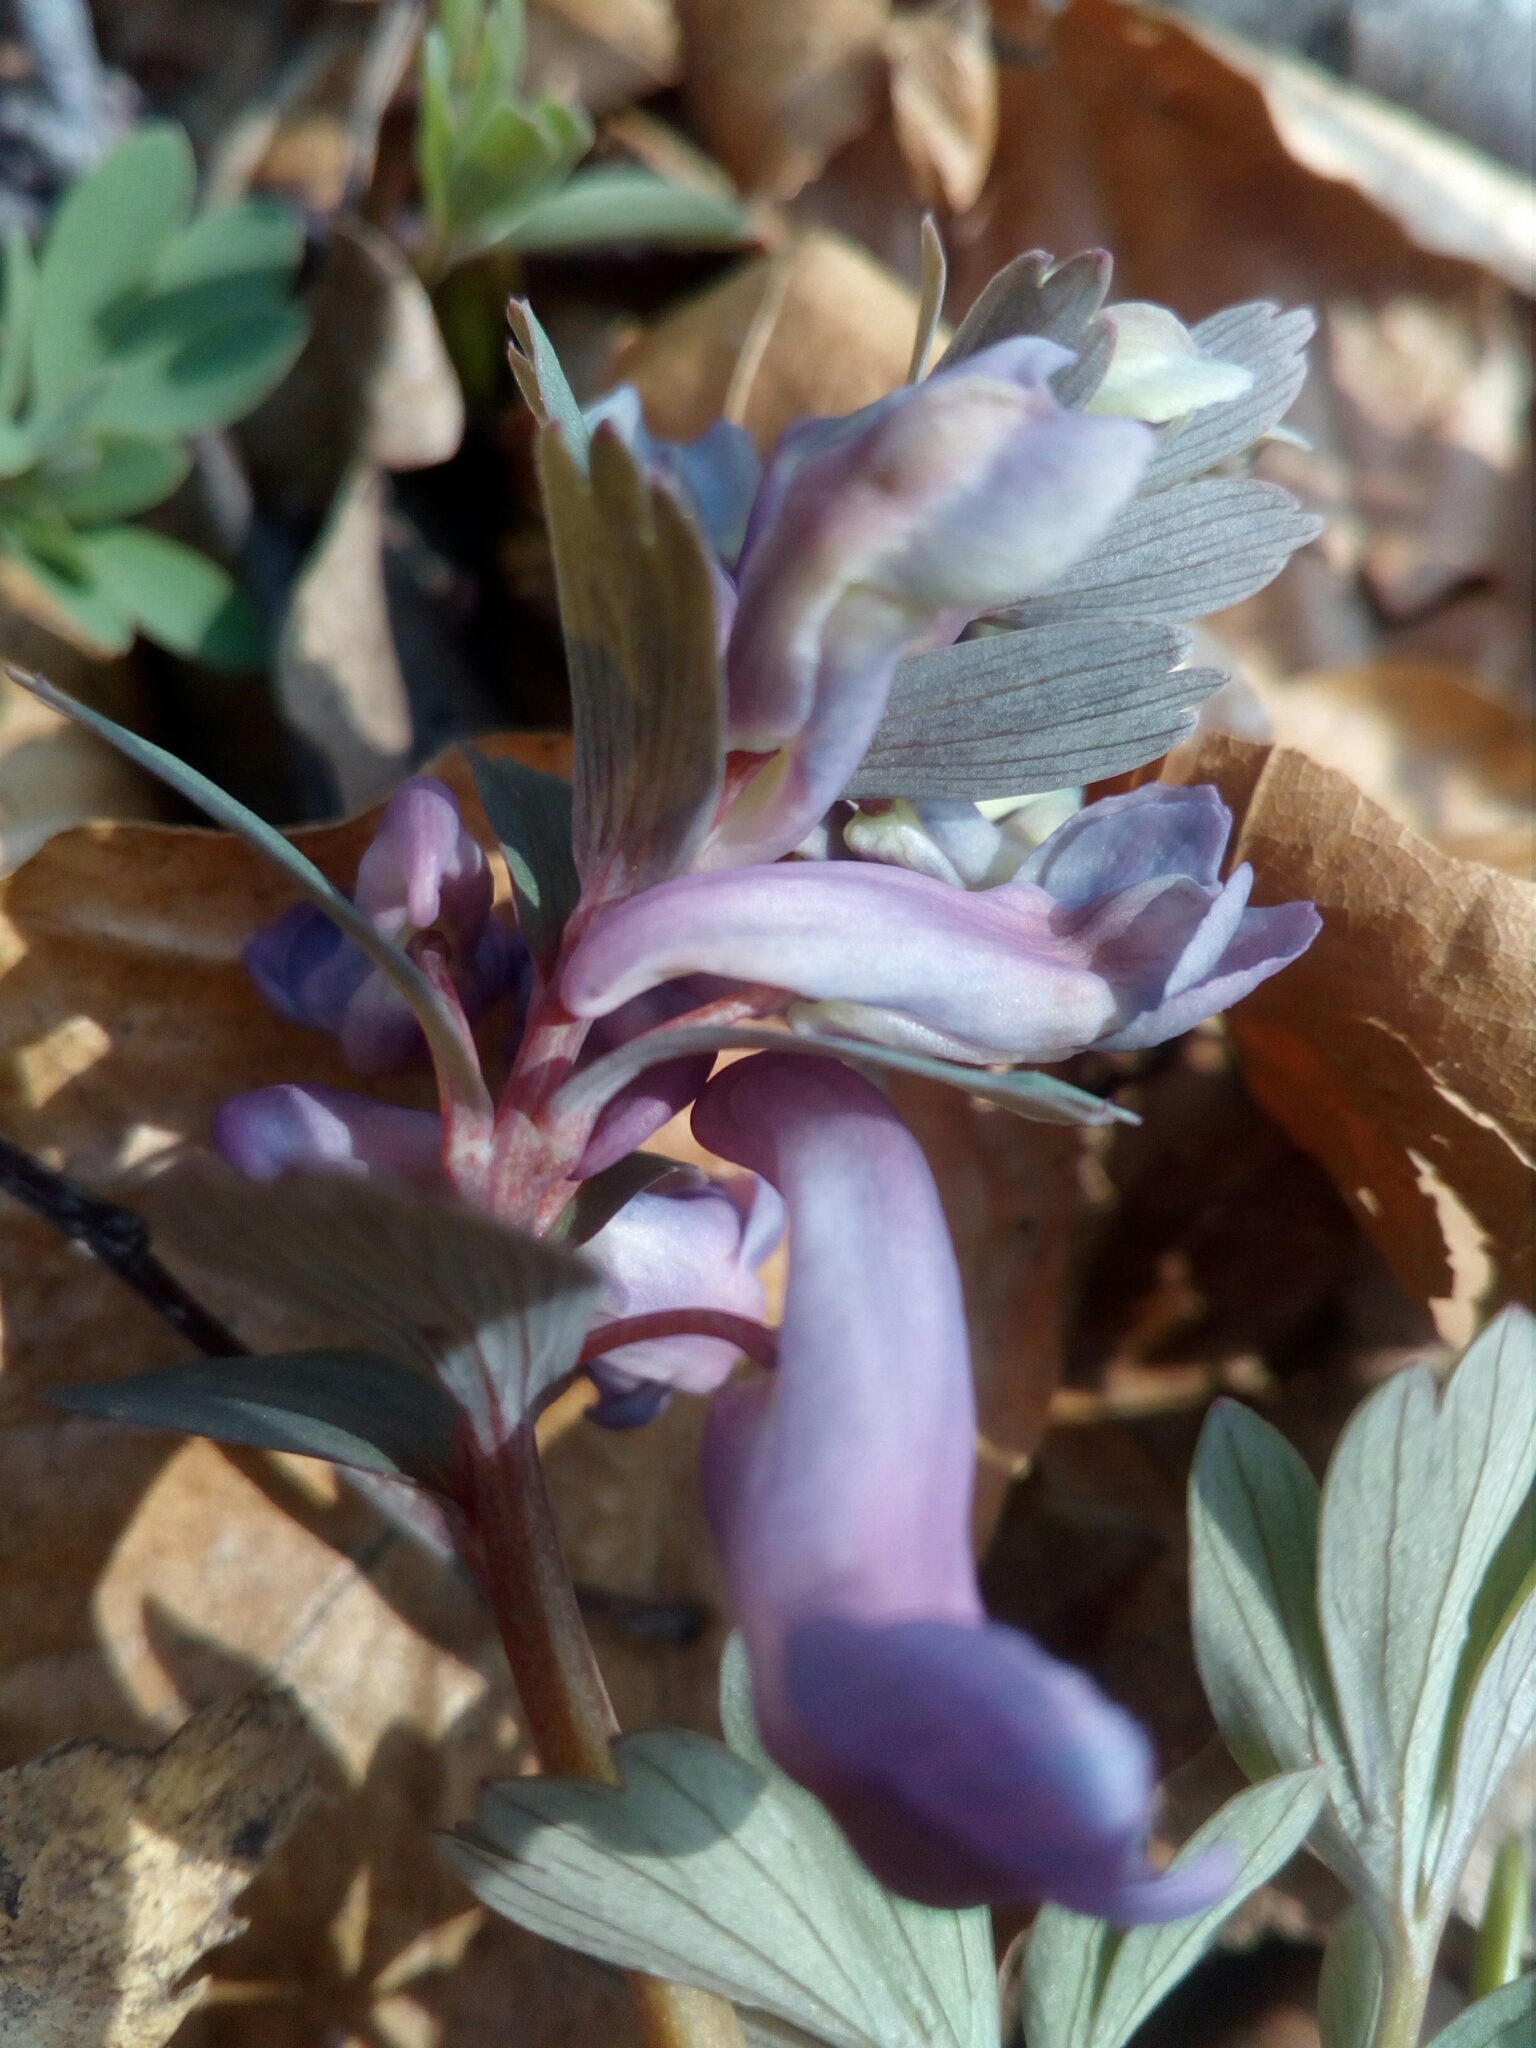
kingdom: Plantae
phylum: Tracheophyta
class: Magnoliopsida
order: Ranunculales
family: Papaveraceae
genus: Corydalis
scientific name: Corydalis solida
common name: Bird-in-a-bush
